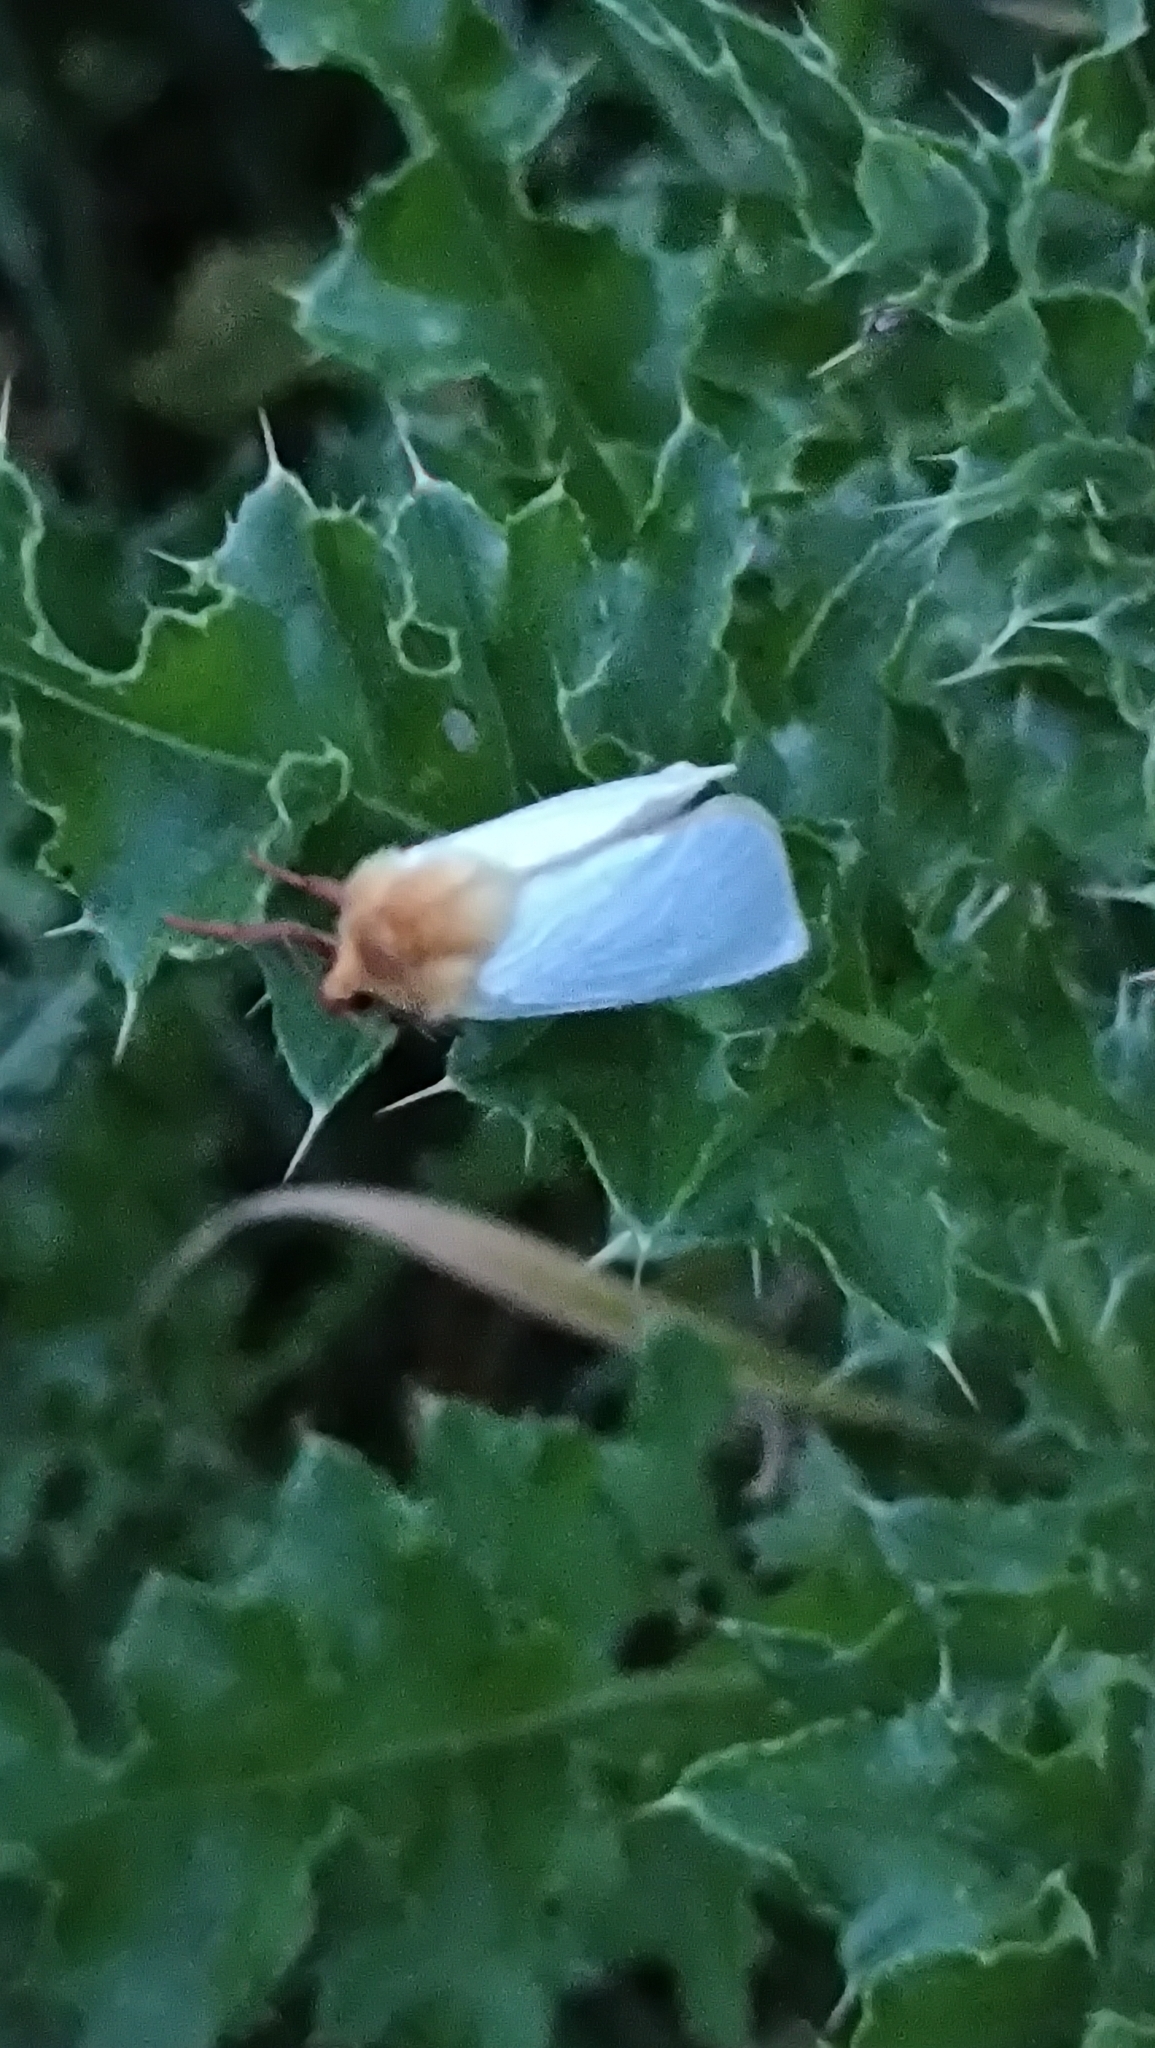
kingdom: Animalia
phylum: Arthropoda
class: Insecta
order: Lepidoptera
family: Hepialidae
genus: Hepialus
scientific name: Hepialus humuli
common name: Ghost moth
